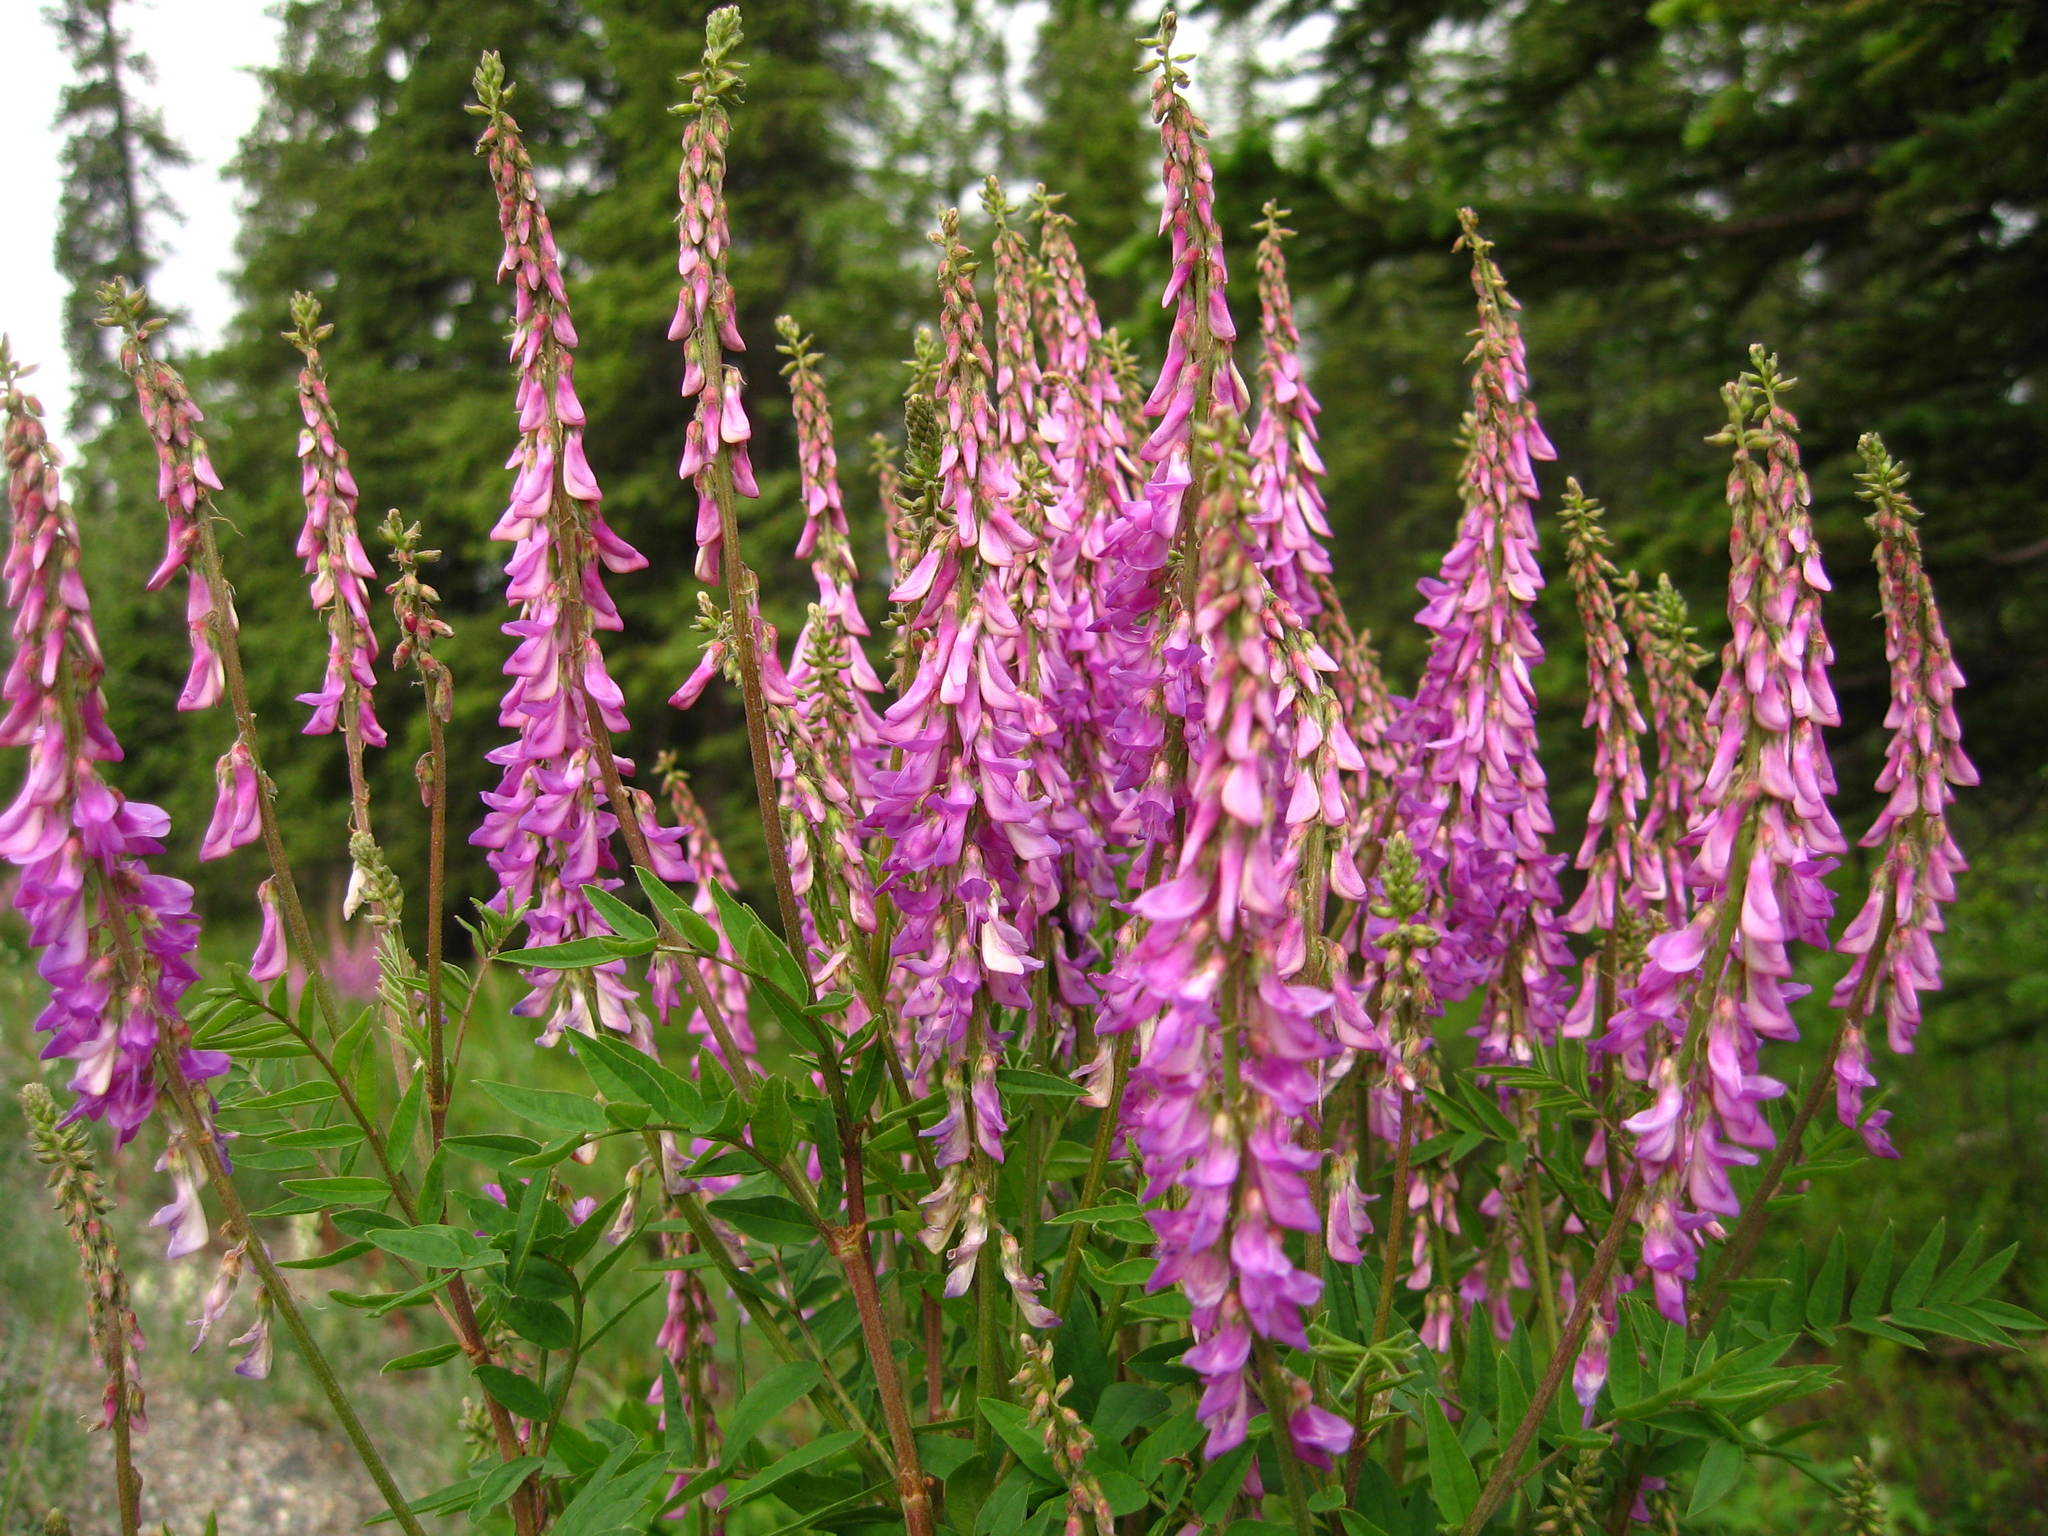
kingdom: Plantae
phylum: Tracheophyta
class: Magnoliopsida
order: Fabales
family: Fabaceae
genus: Hedysarum
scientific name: Hedysarum alpinum
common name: Alpine sweet-vetch
